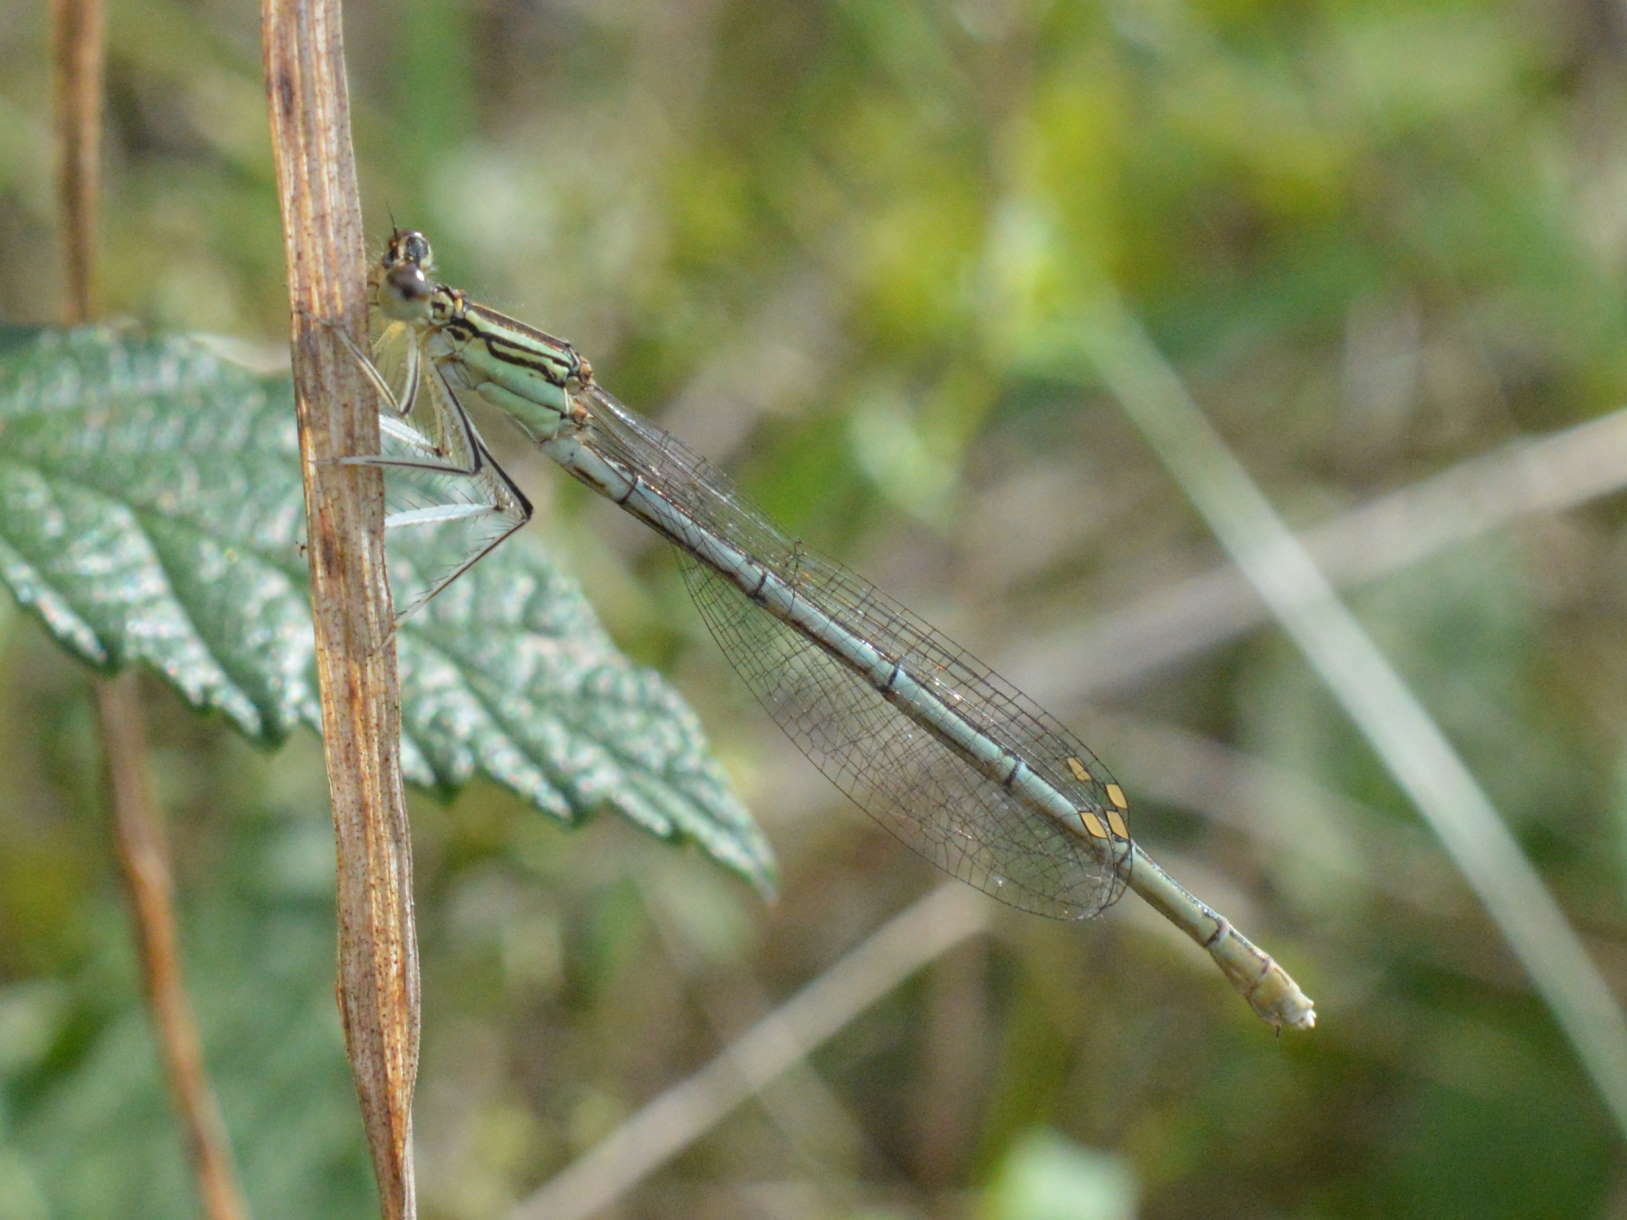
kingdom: Animalia
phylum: Arthropoda
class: Insecta
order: Odonata
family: Platycnemididae
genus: Platycnemis
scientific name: Platycnemis pennipes
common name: White-legged damselfly
